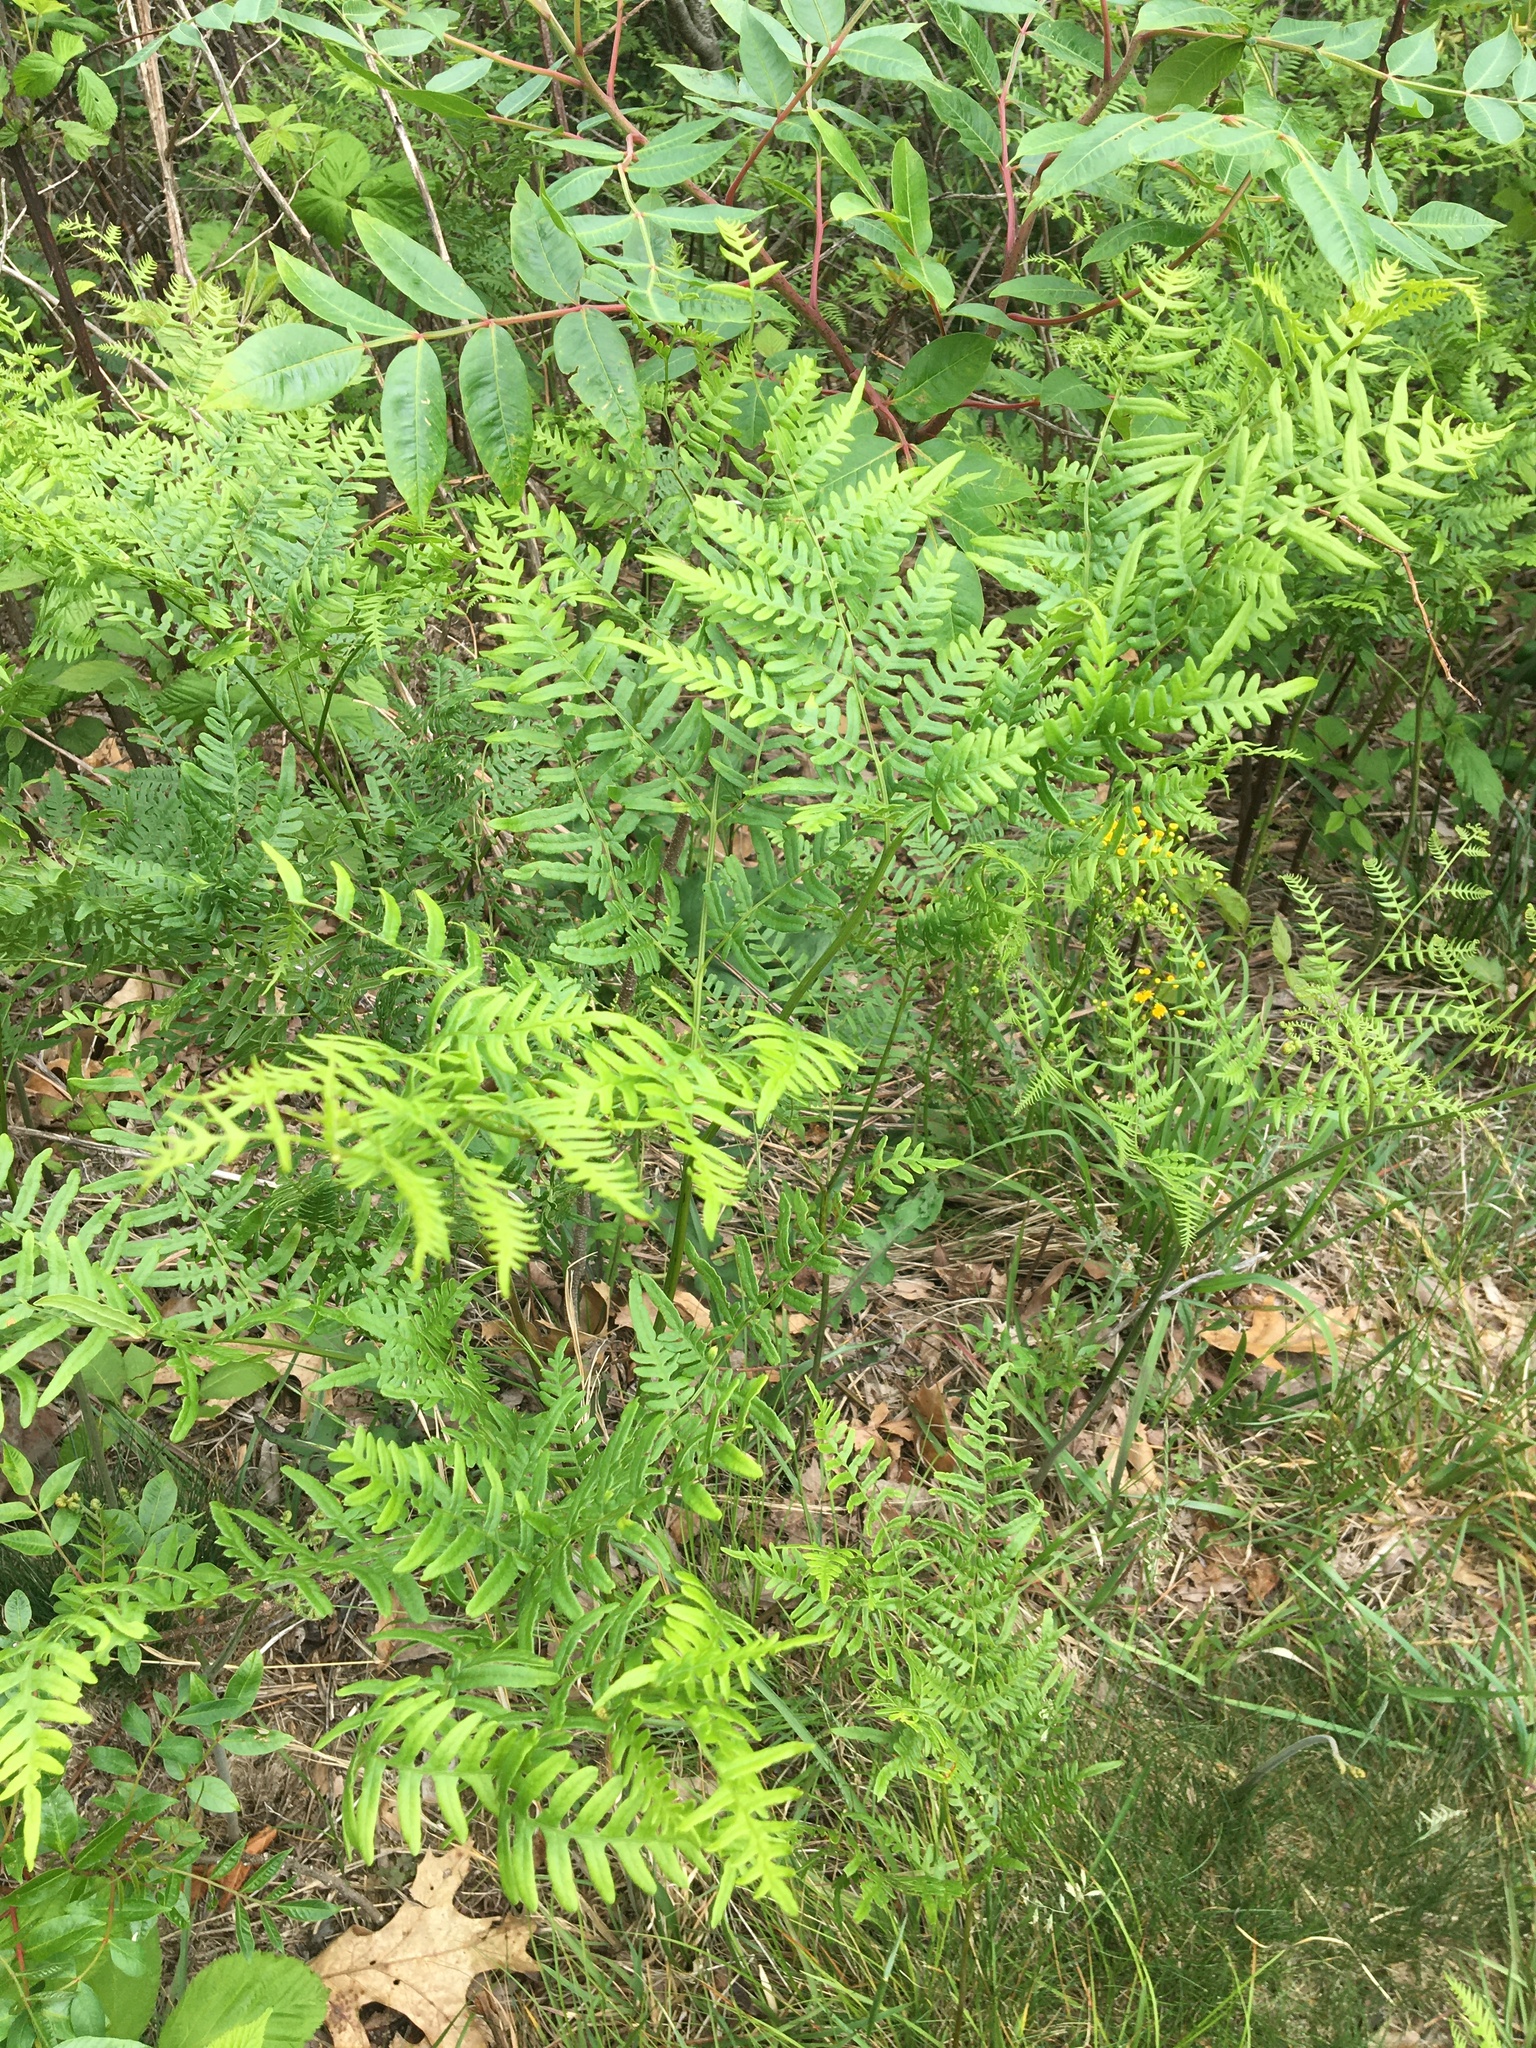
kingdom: Plantae
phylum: Tracheophyta
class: Polypodiopsida
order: Polypodiales
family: Dennstaedtiaceae
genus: Pteridium
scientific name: Pteridium aquilinum
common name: Bracken
